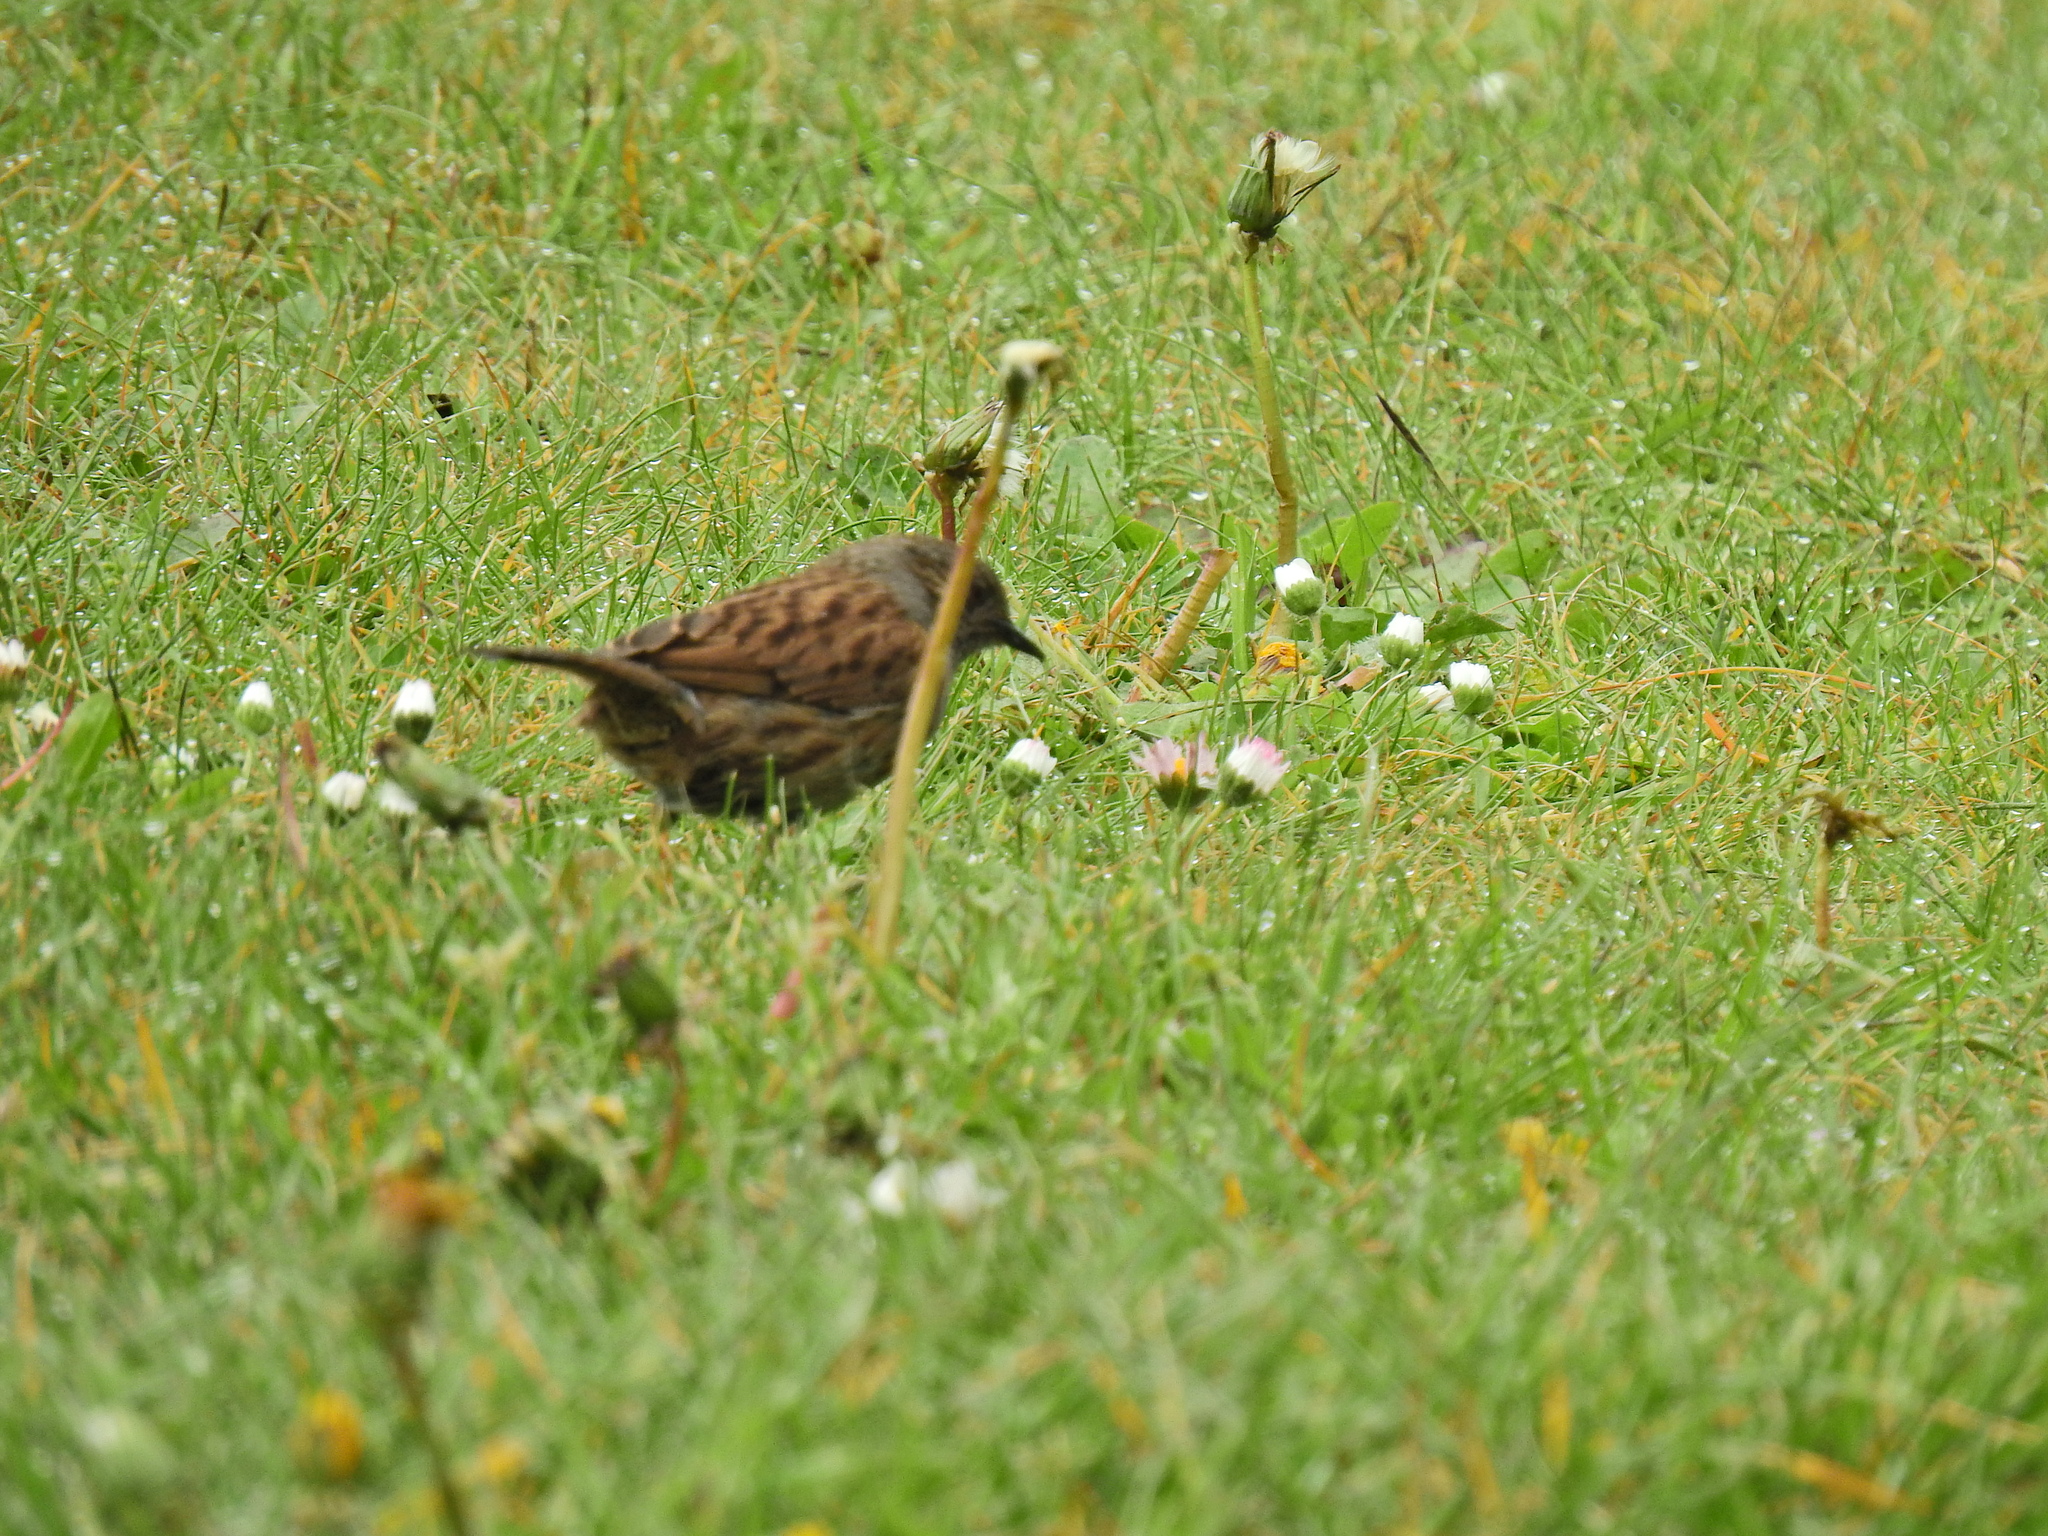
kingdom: Animalia
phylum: Chordata
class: Aves
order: Passeriformes
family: Prunellidae
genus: Prunella
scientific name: Prunella modularis
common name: Dunnock
